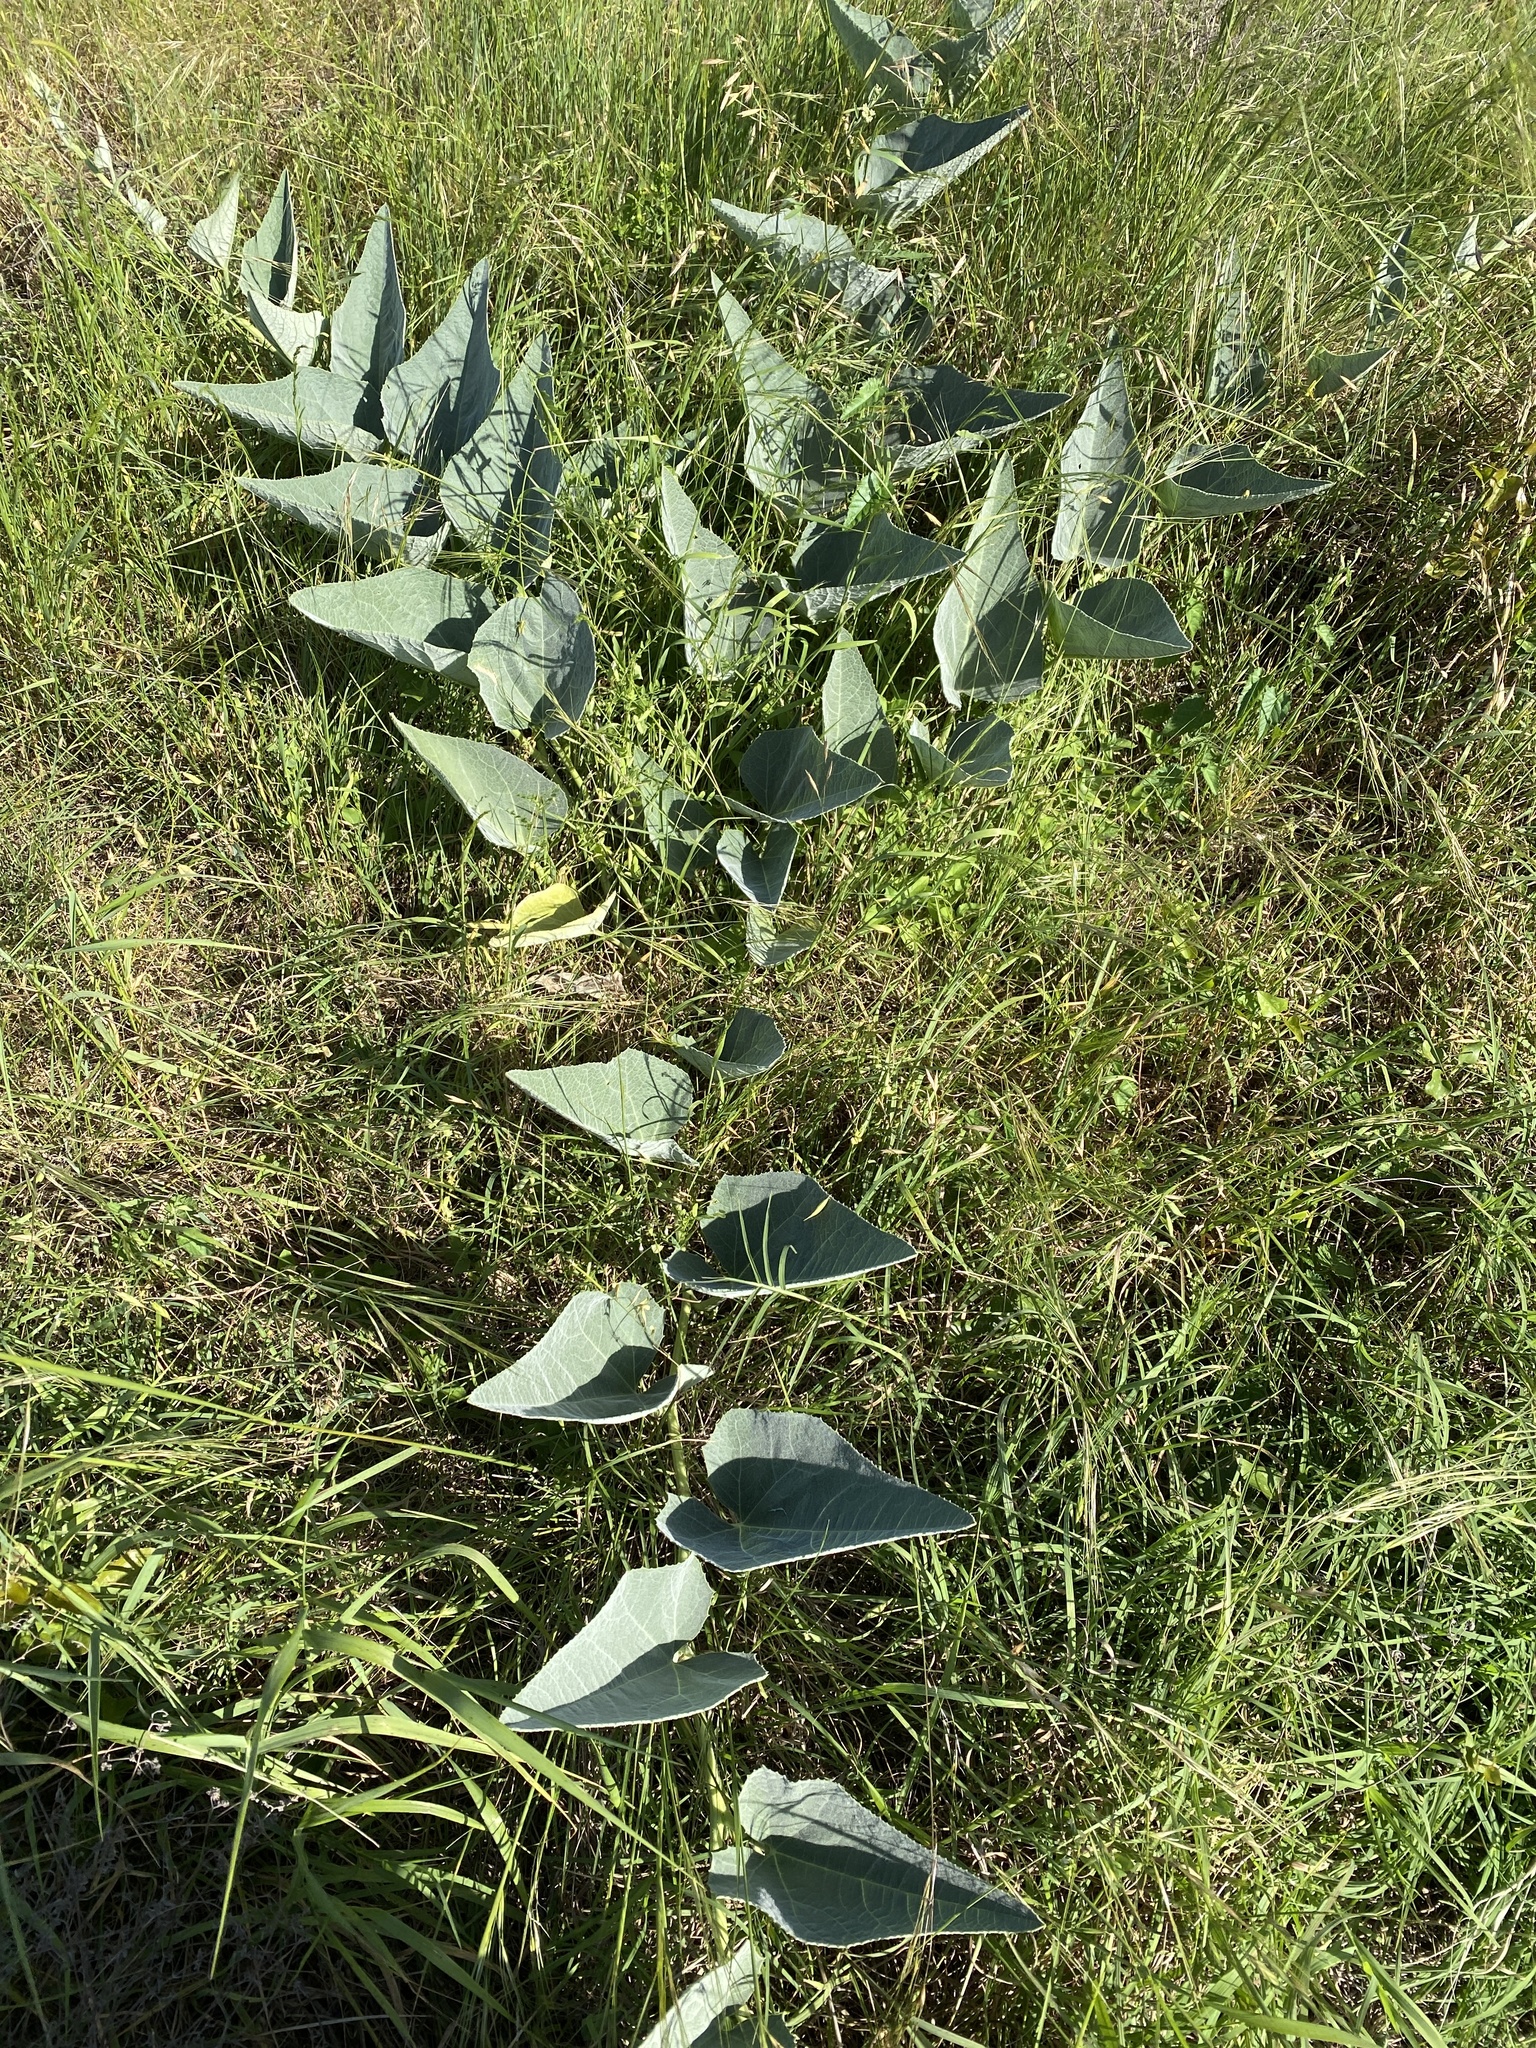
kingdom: Plantae
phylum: Tracheophyta
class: Magnoliopsida
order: Cucurbitales
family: Cucurbitaceae
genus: Cucurbita
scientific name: Cucurbita foetidissima
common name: Buffalo gourd
